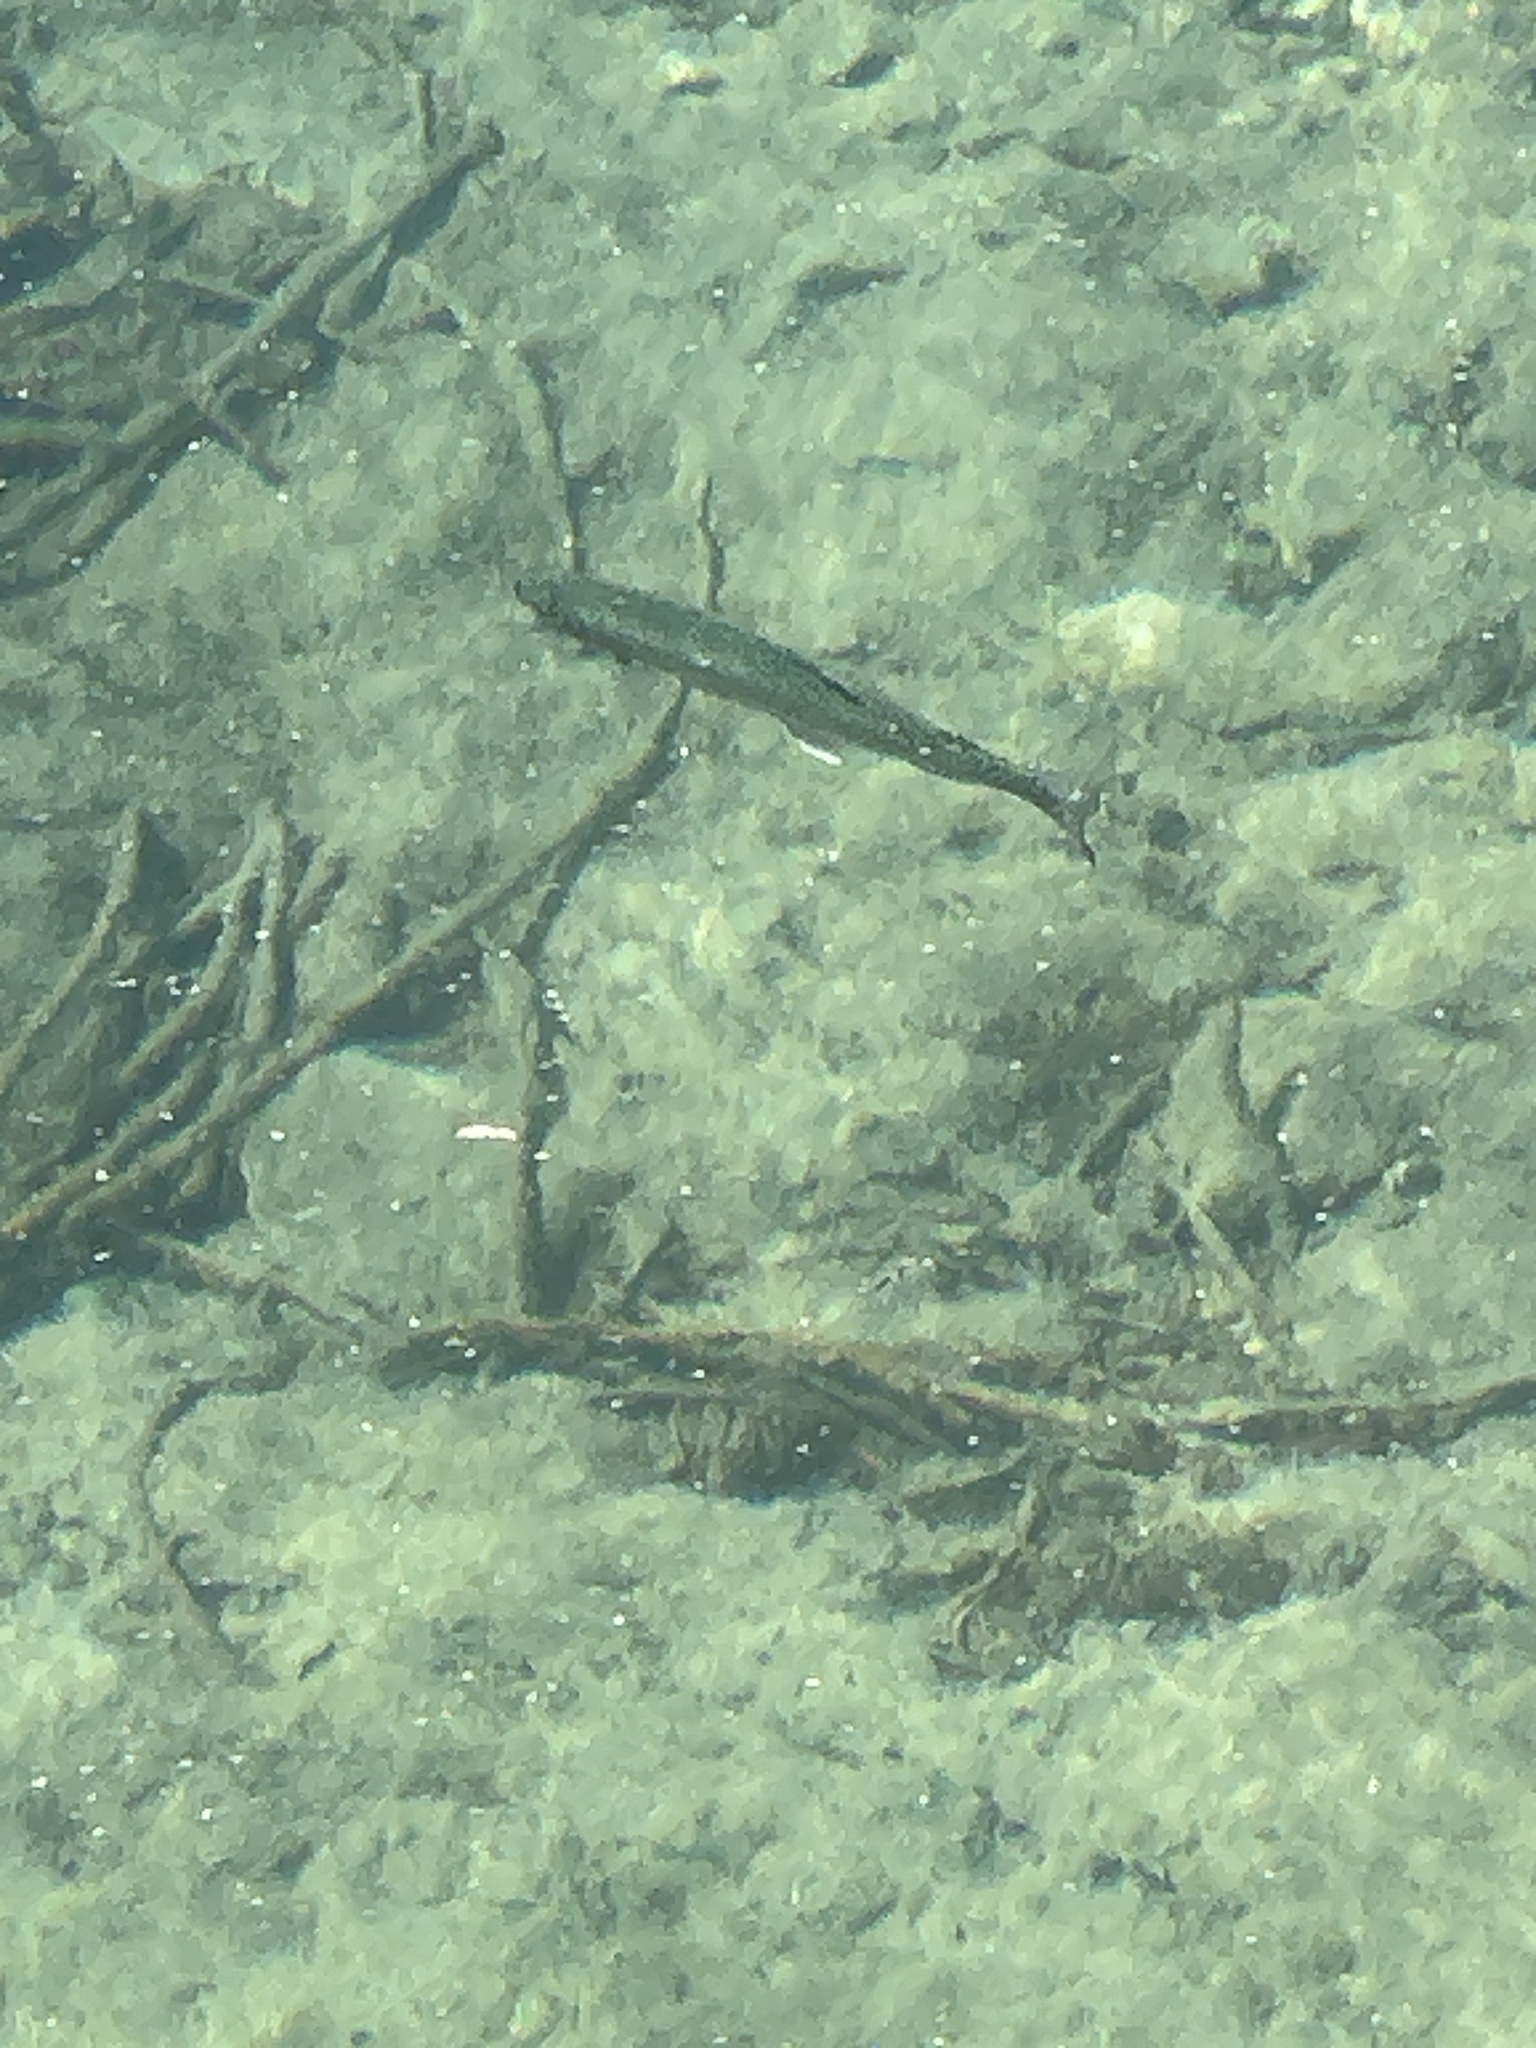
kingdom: Animalia
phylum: Chordata
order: Salmoniformes
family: Salmonidae
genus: Oncorhynchus
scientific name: Oncorhynchus mykiss
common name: Rainbow trout
